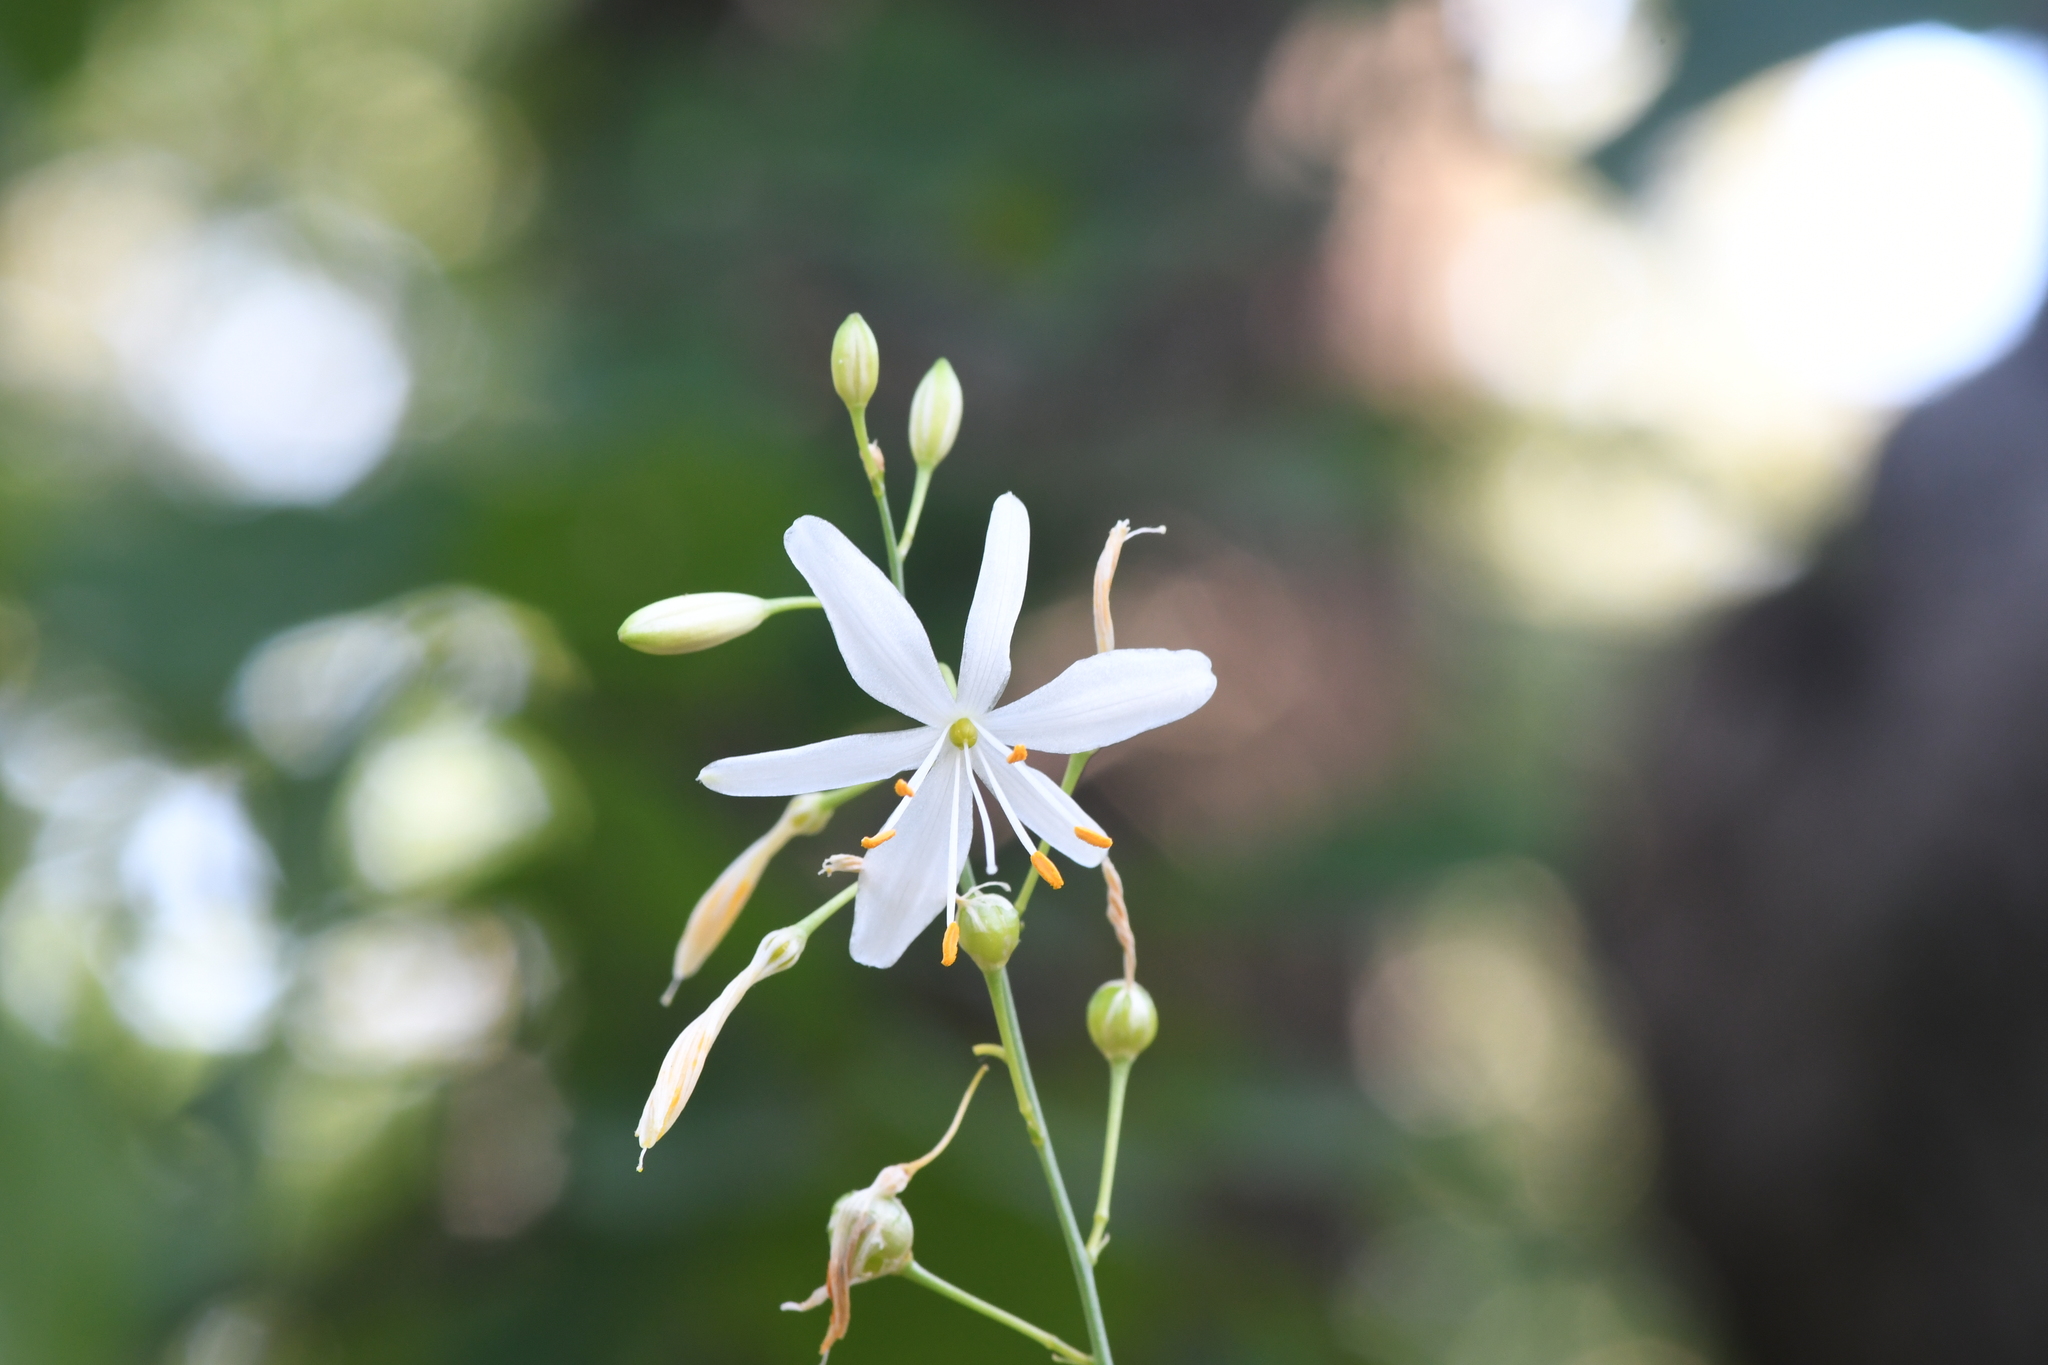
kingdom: Plantae
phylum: Tracheophyta
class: Liliopsida
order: Asparagales
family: Asparagaceae
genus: Anthericum
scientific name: Anthericum ramosum
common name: Branched st. bernard's-lily
